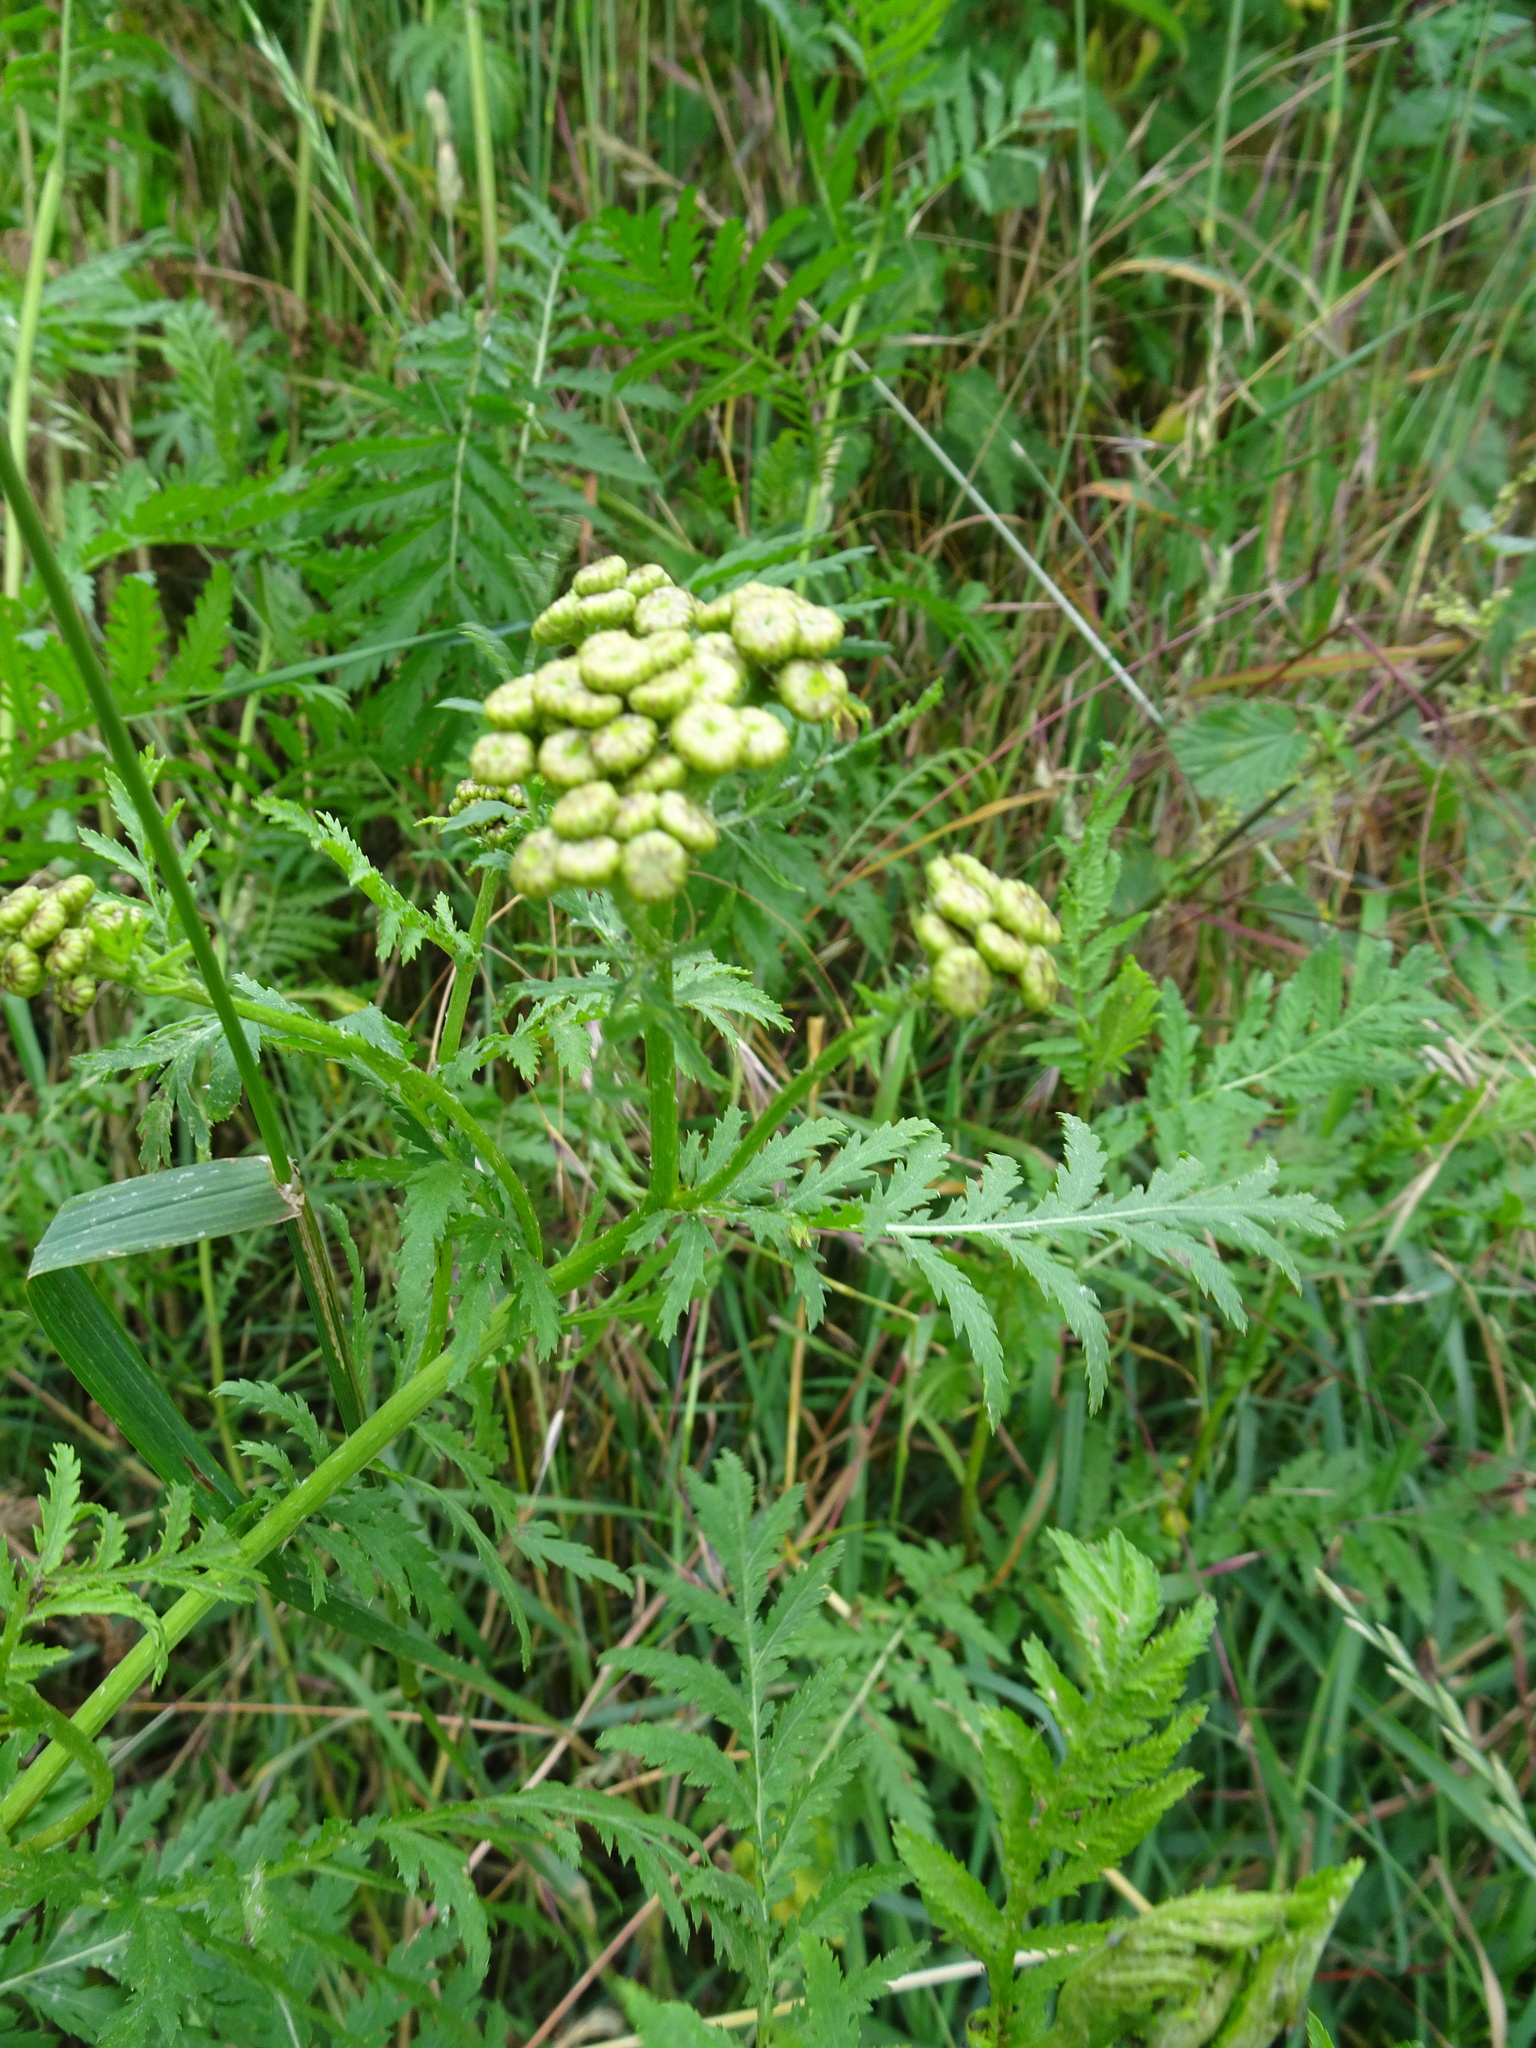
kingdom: Plantae
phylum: Tracheophyta
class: Magnoliopsida
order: Asterales
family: Asteraceae
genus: Tanacetum
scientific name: Tanacetum vulgare
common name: Common tansy
